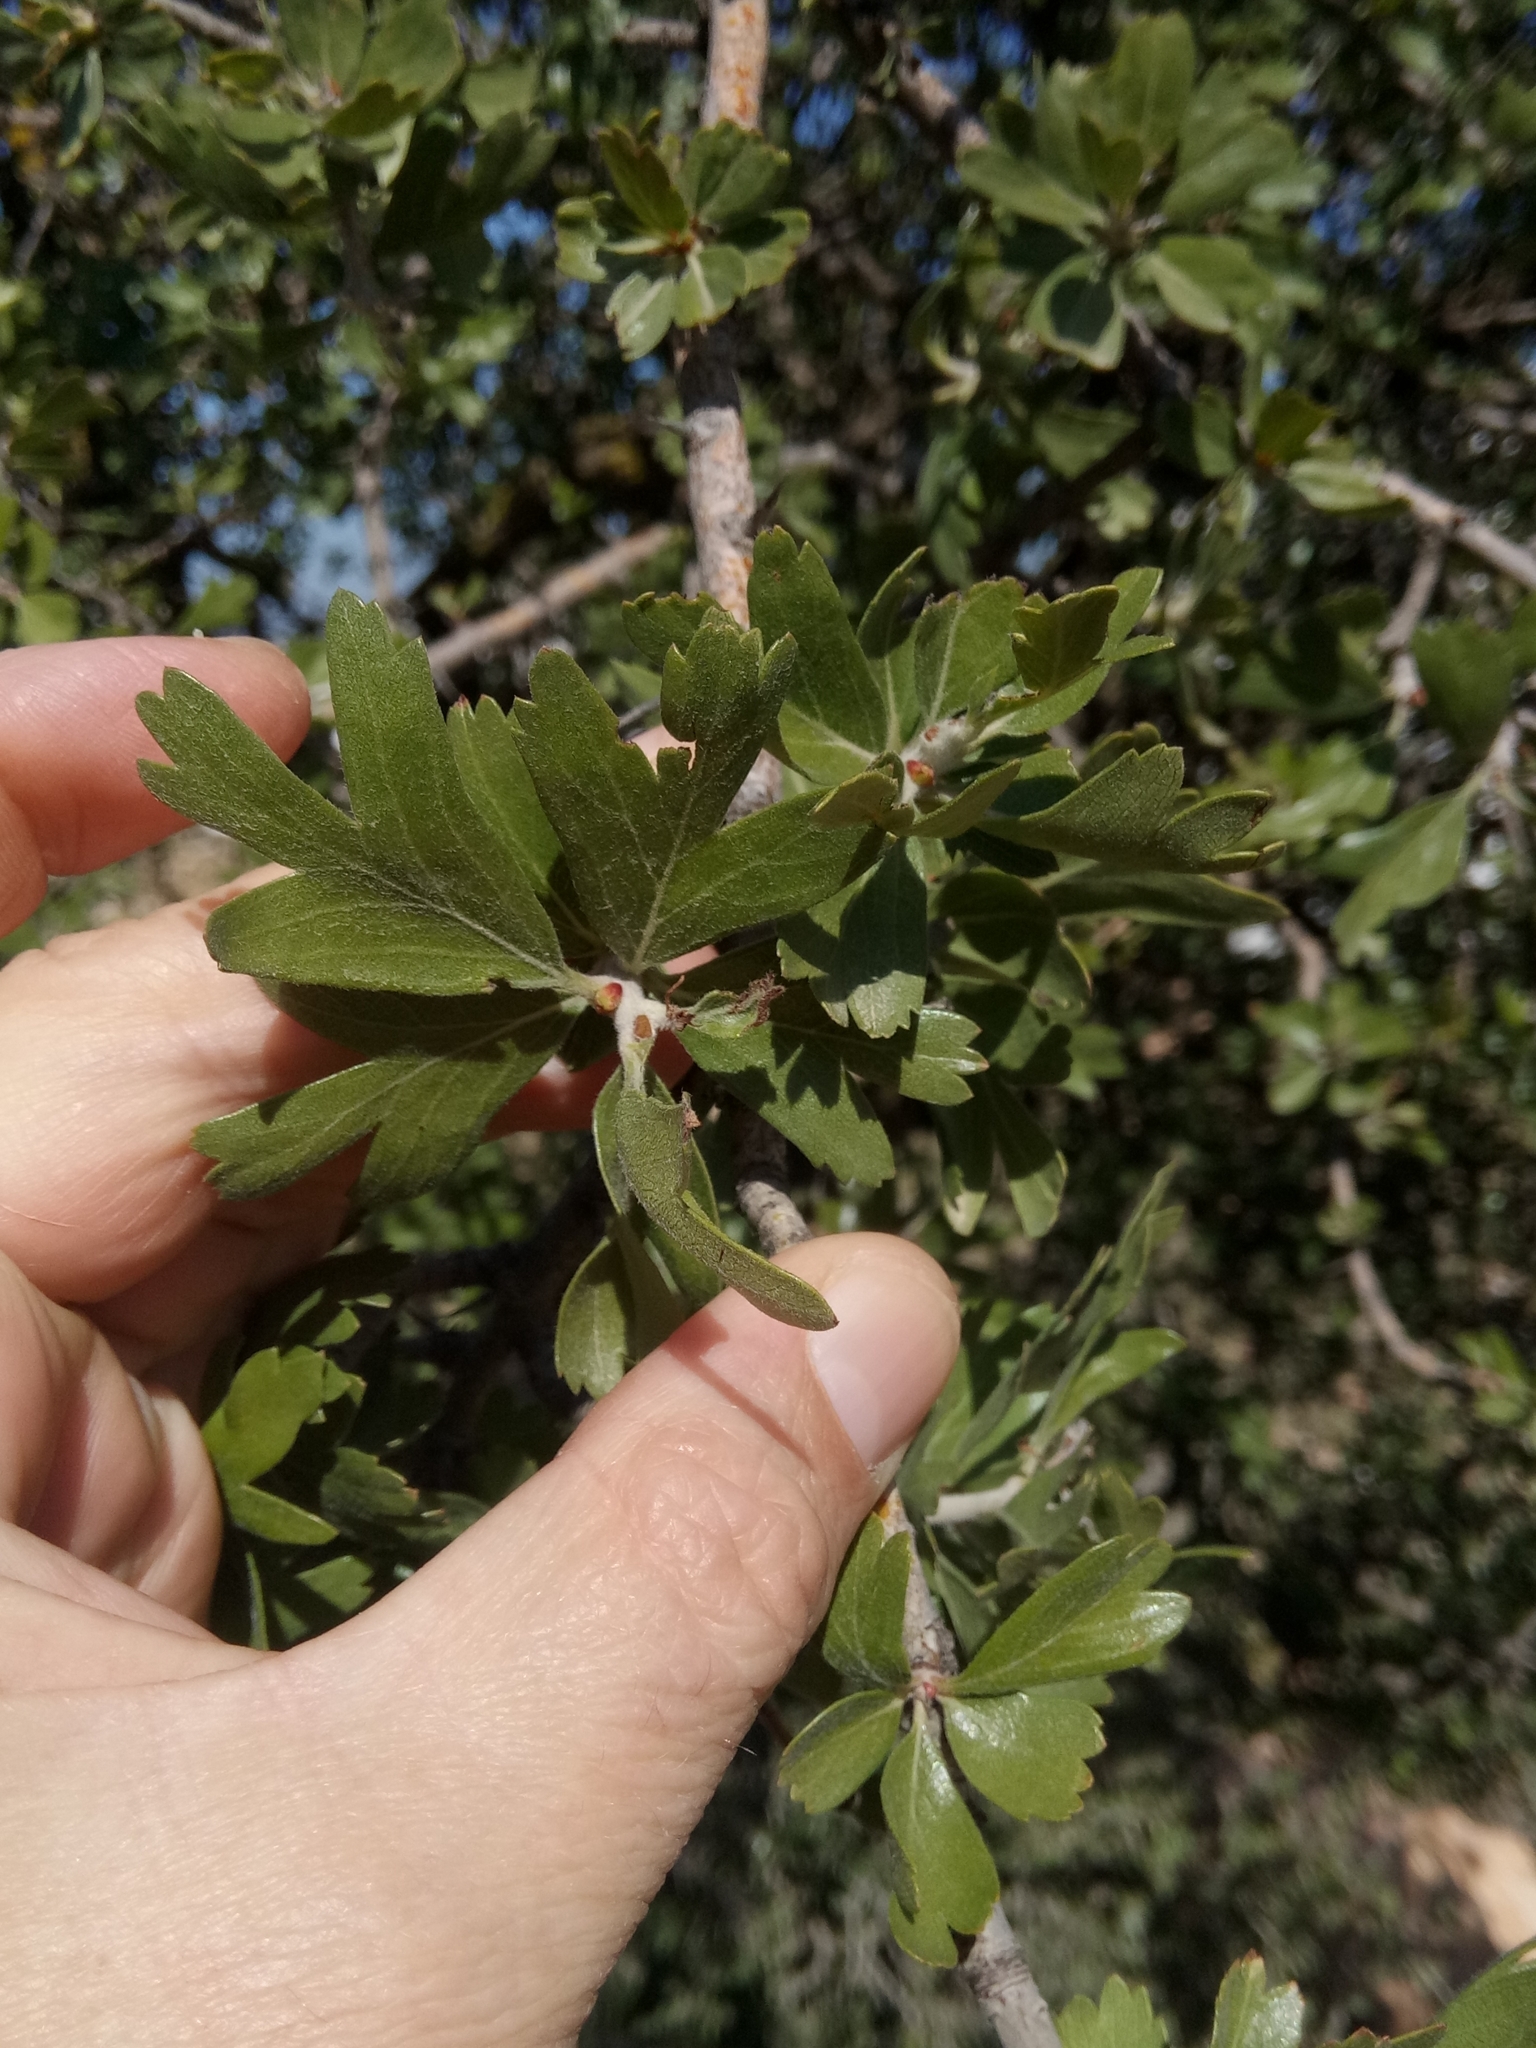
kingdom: Plantae
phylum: Tracheophyta
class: Magnoliopsida
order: Rosales
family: Rosaceae
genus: Crataegus
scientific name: Crataegus azarolus
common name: Azarole
